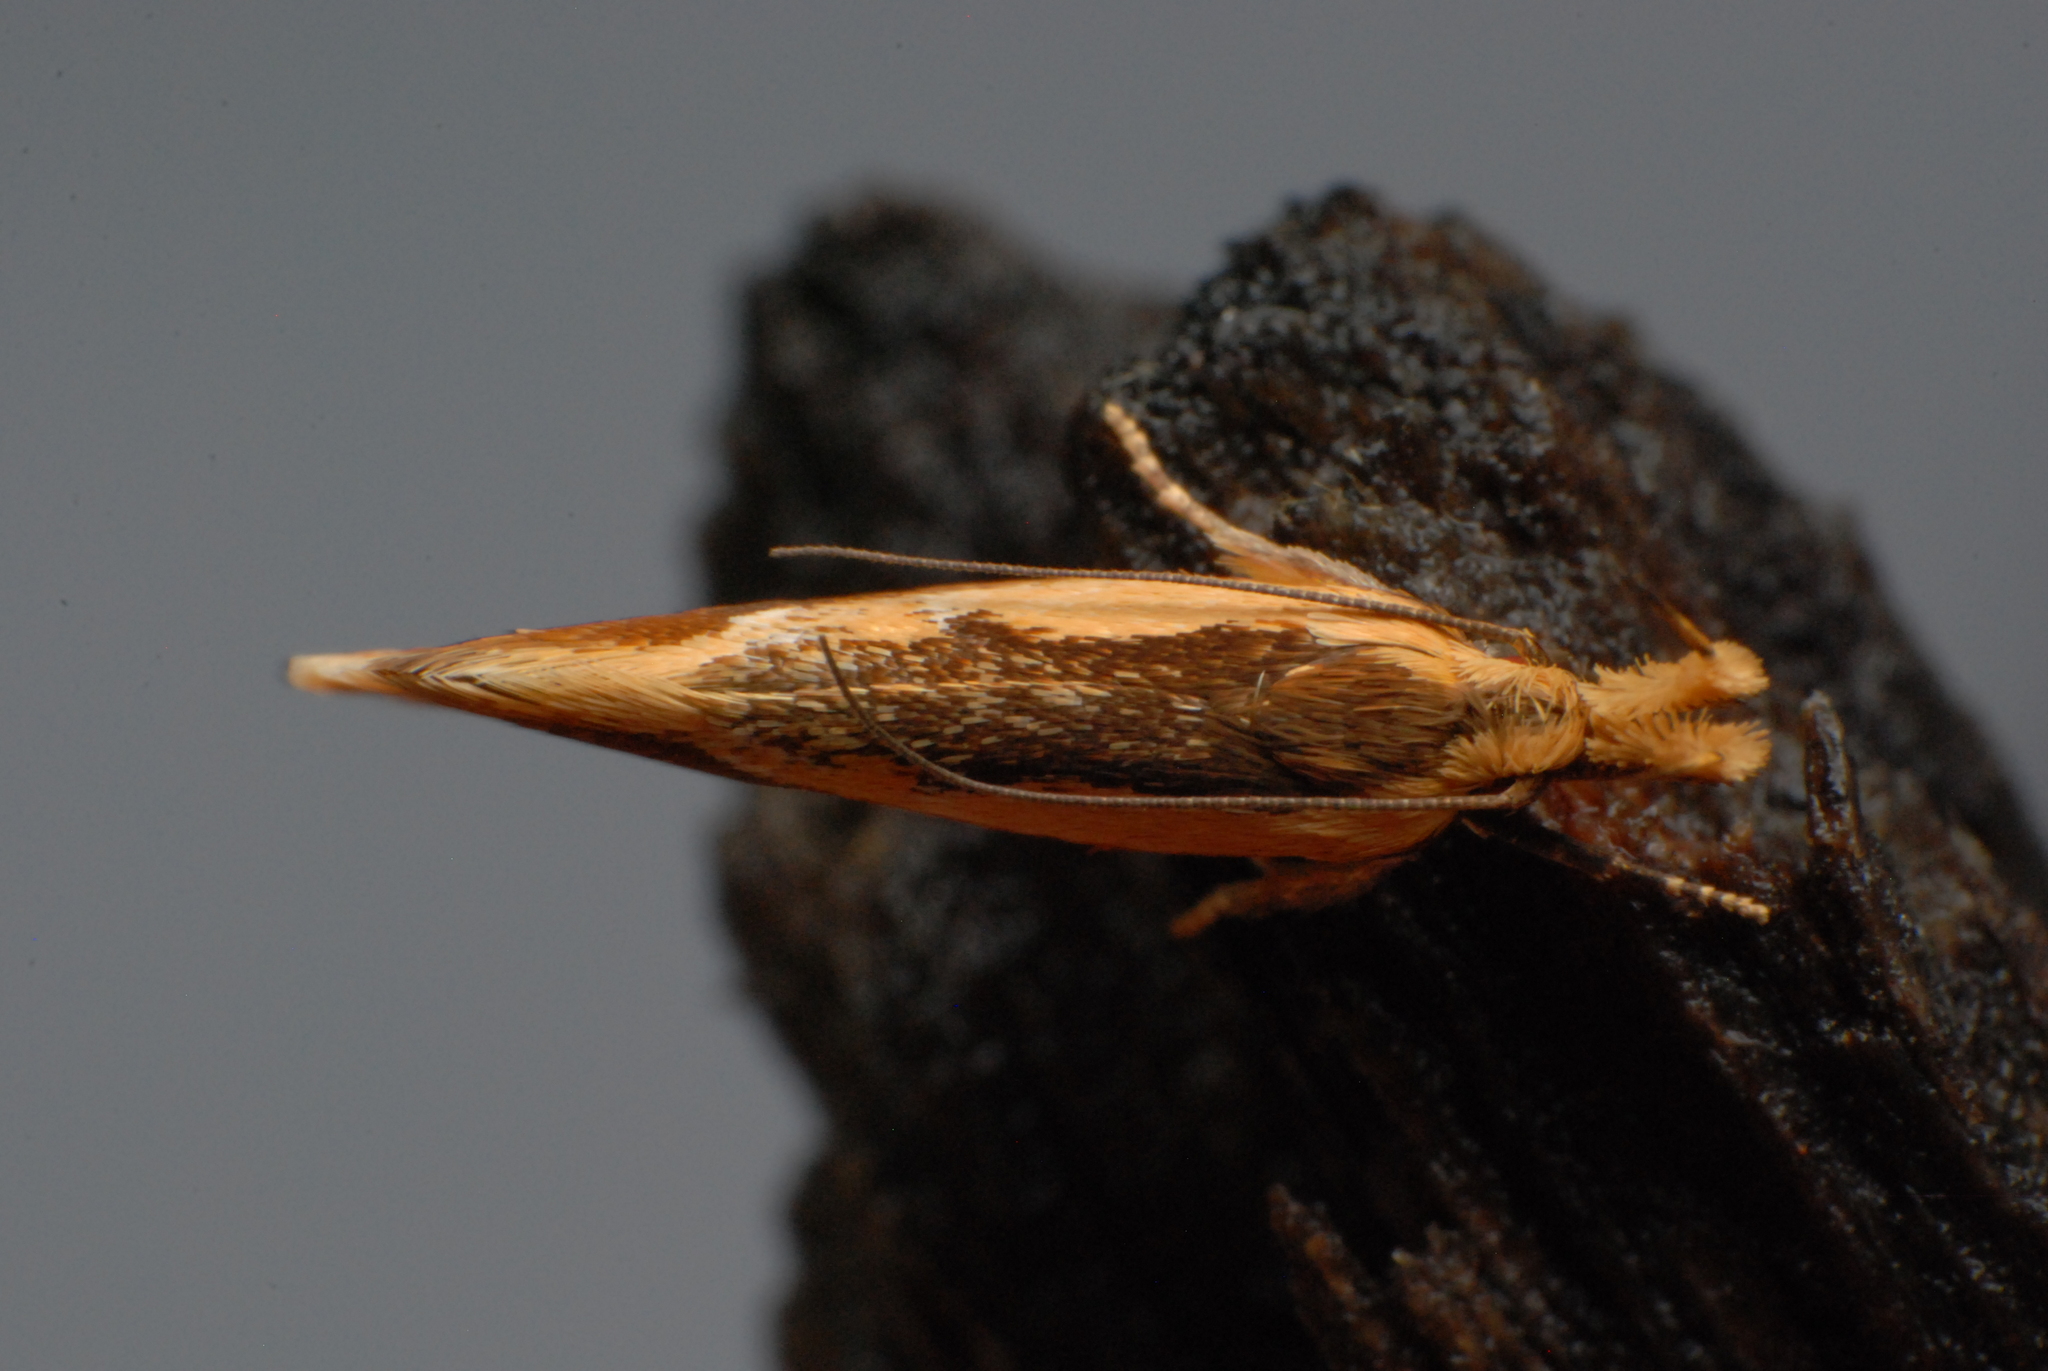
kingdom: Animalia
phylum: Arthropoda
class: Insecta
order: Lepidoptera
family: Oecophoridae
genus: Thema
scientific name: Thema psammoxantha
